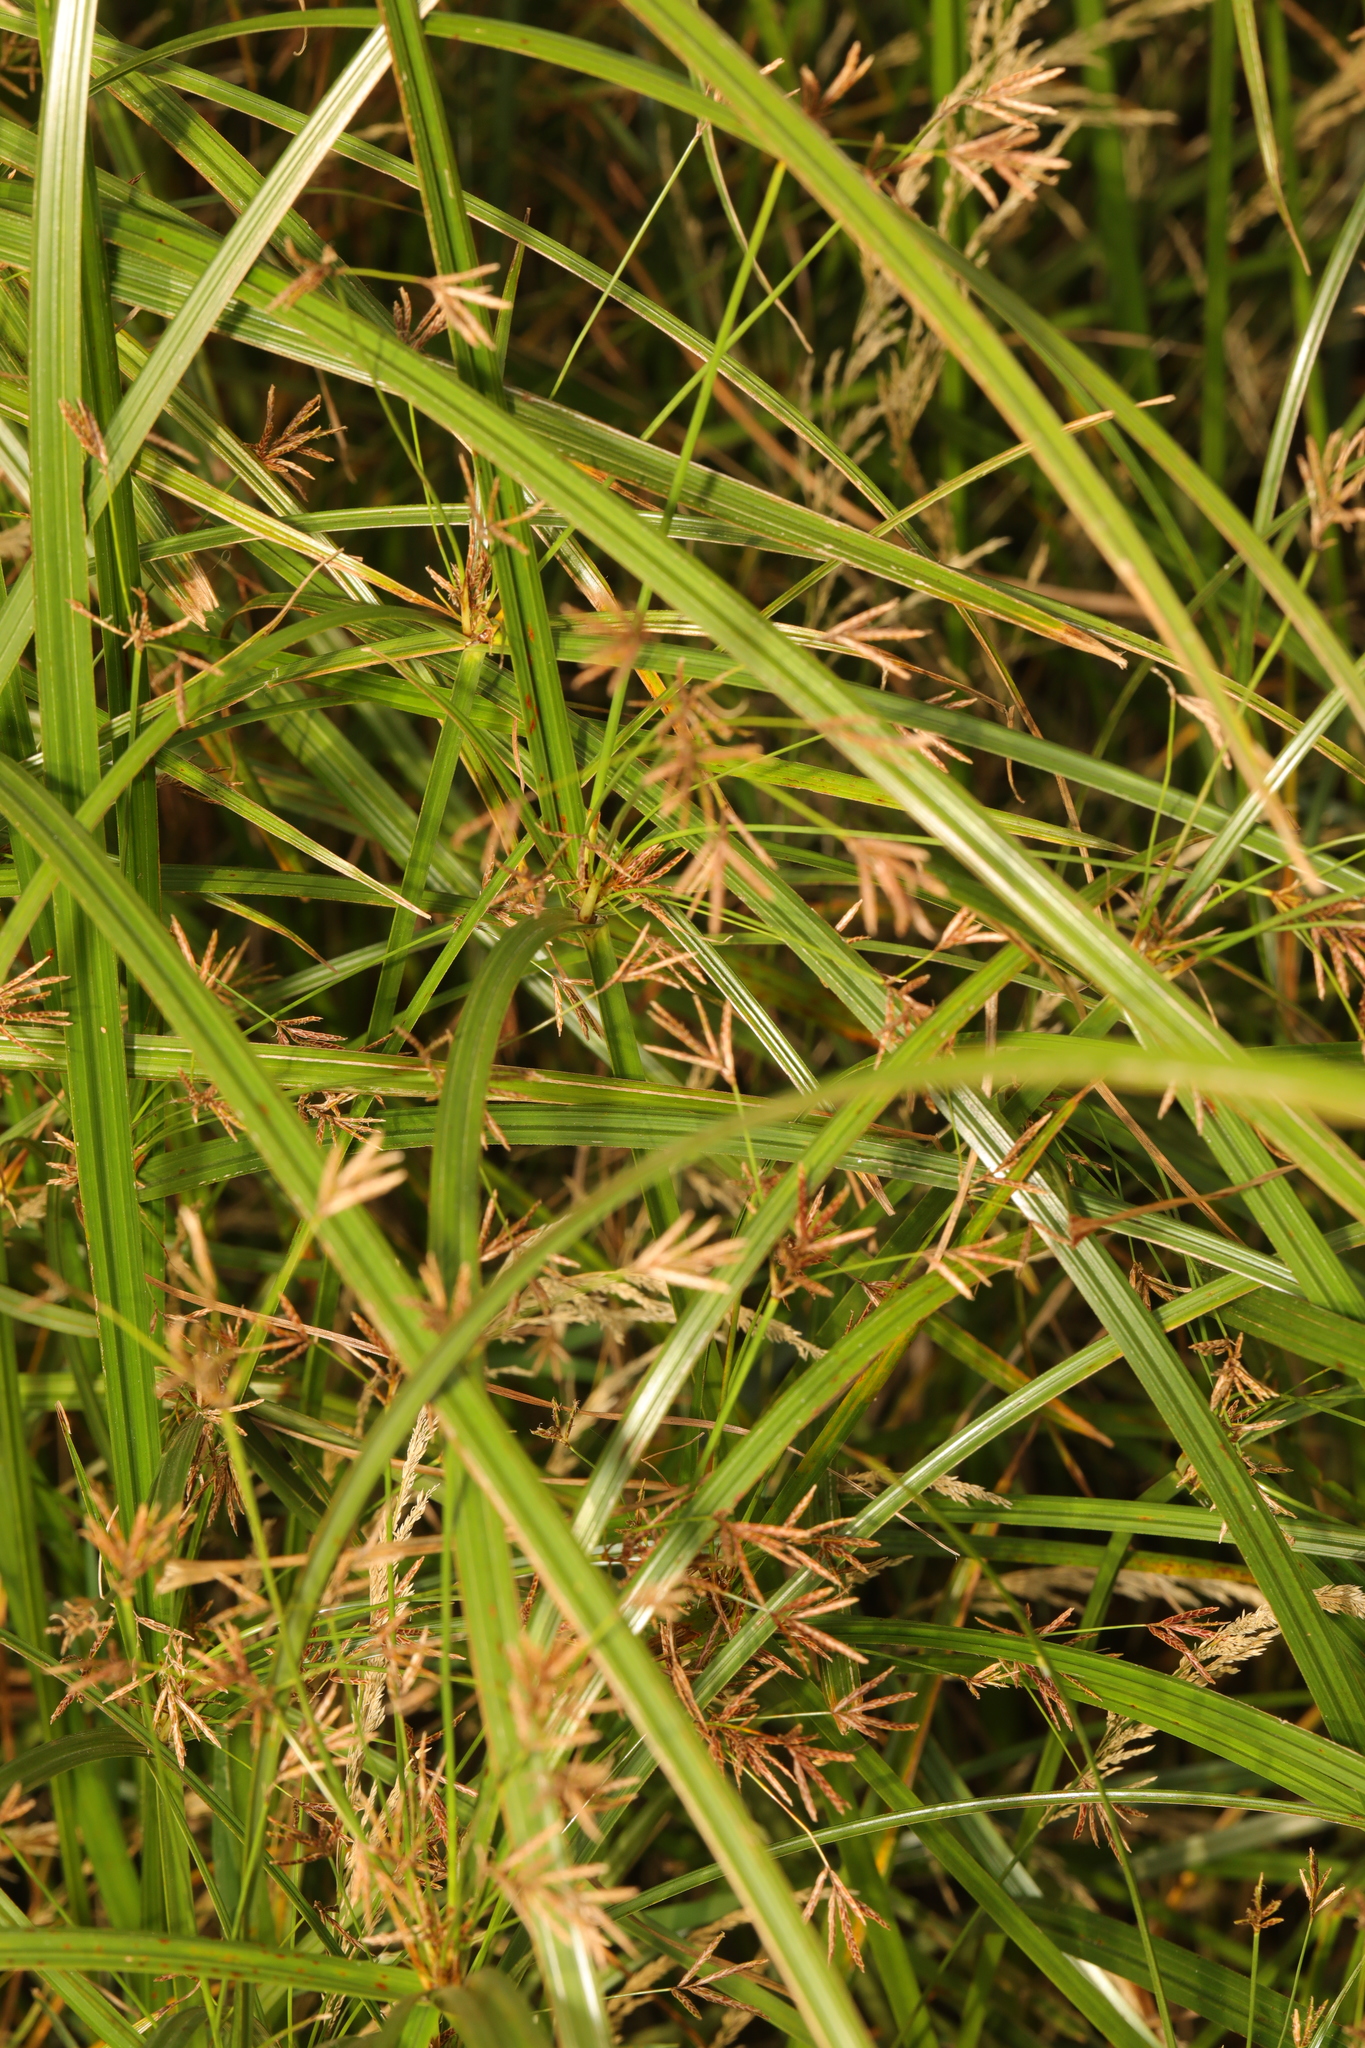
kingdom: Plantae
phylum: Tracheophyta
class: Liliopsida
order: Poales
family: Cyperaceae
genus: Cyperus
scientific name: Cyperus longus
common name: Galingale
